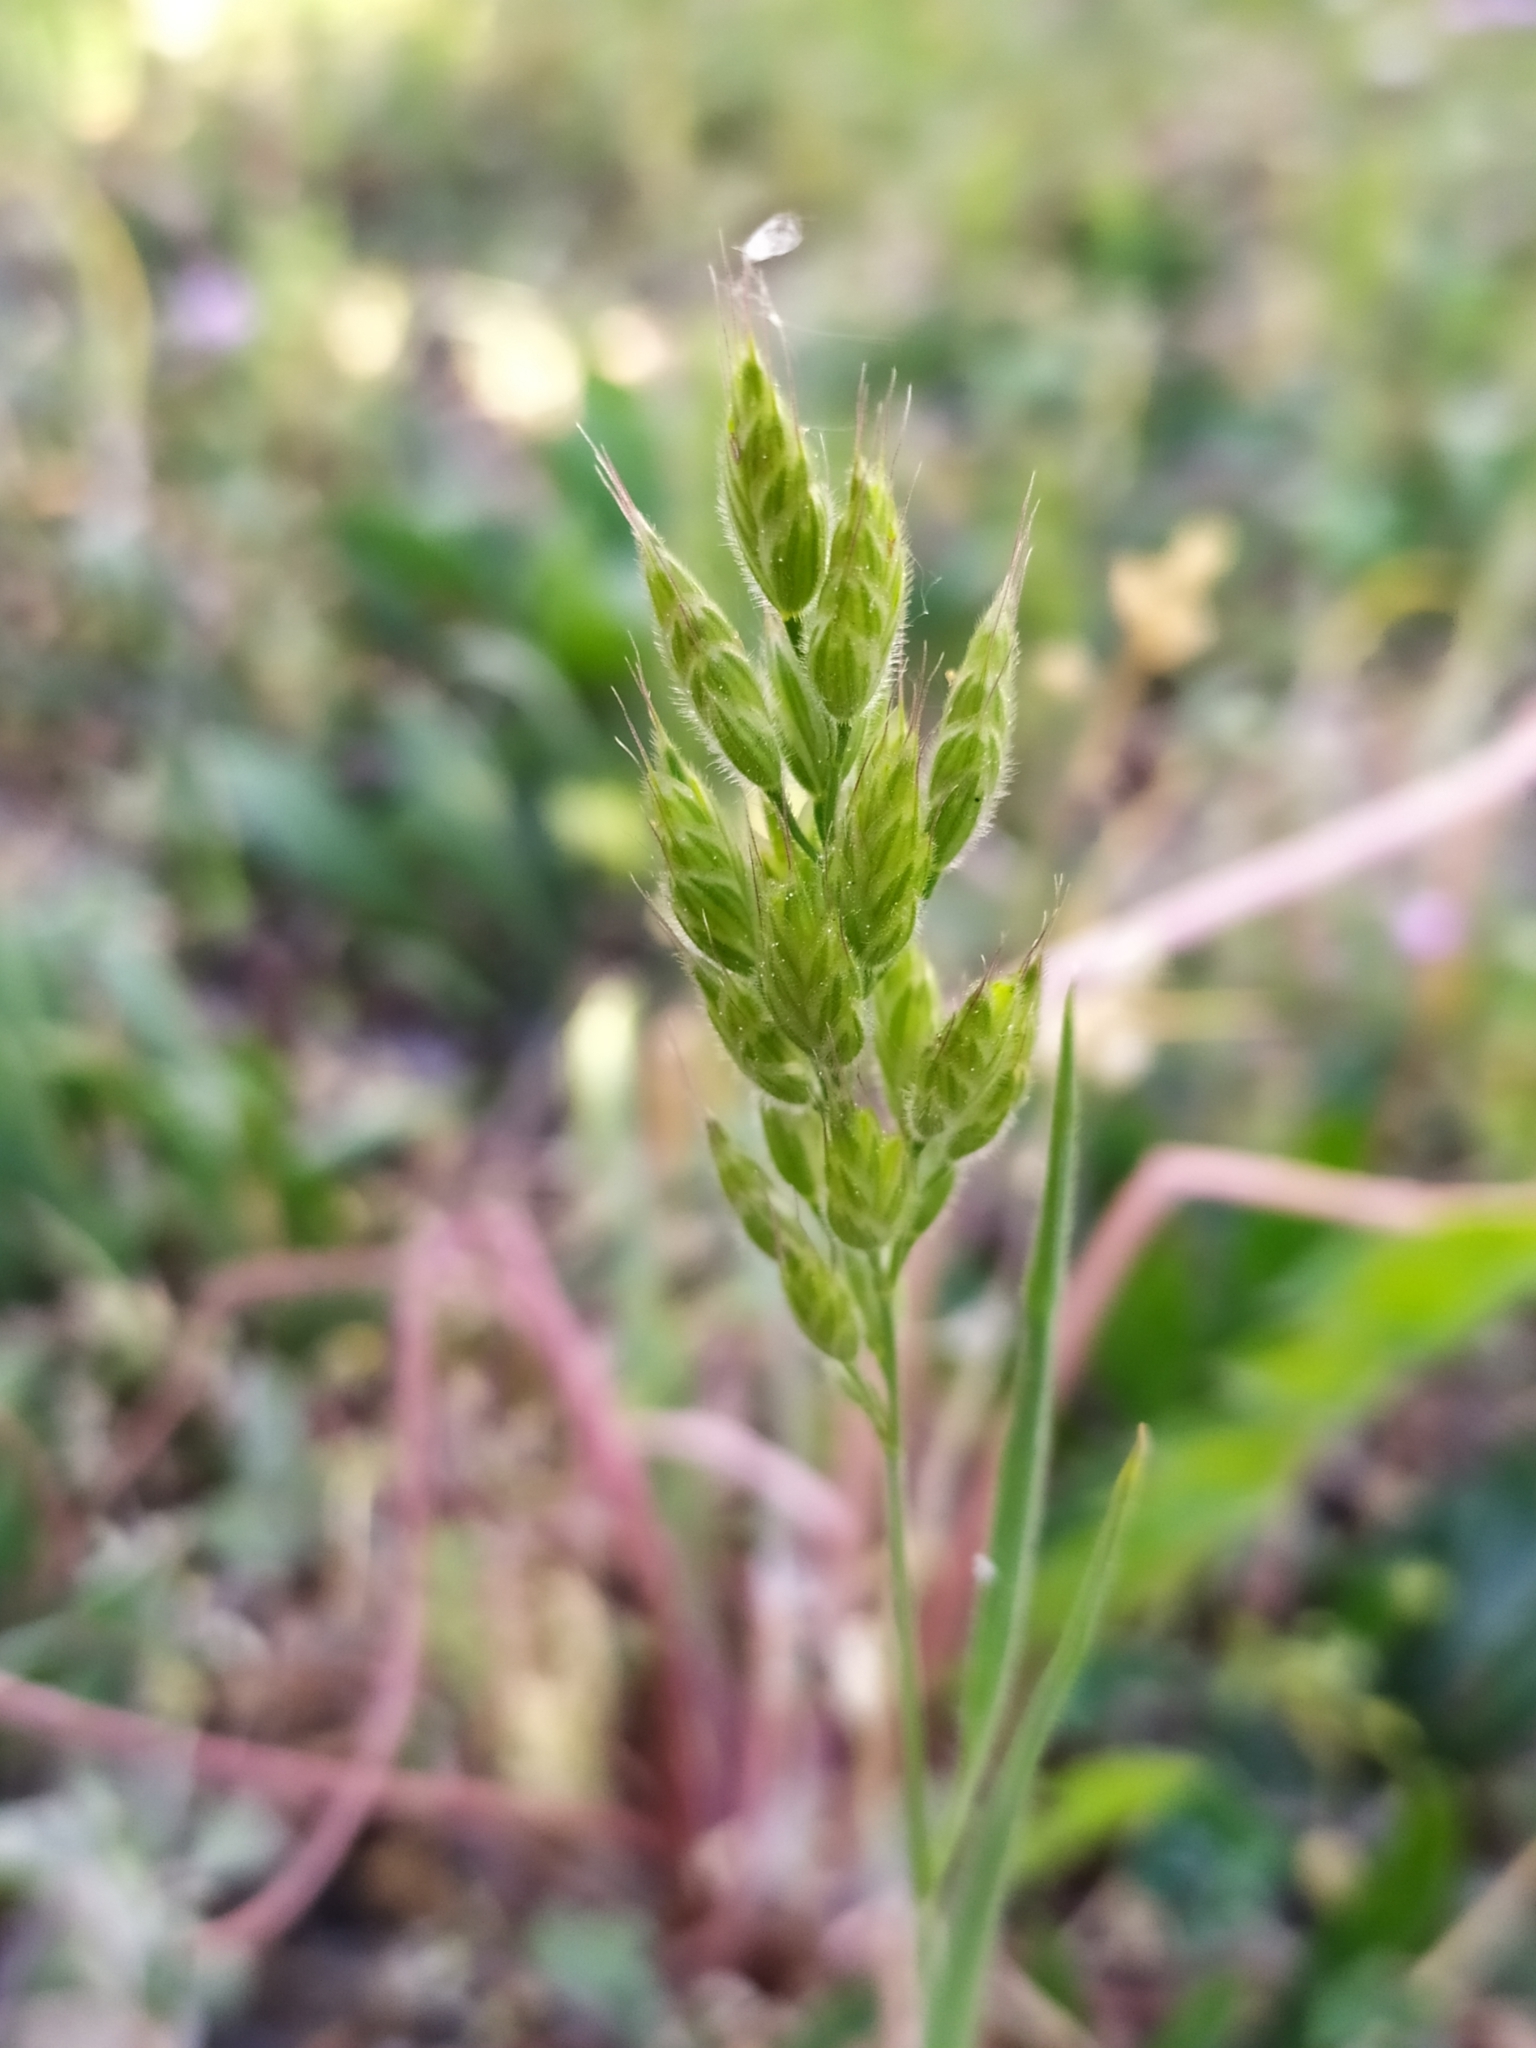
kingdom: Plantae
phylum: Tracheophyta
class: Liliopsida
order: Poales
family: Poaceae
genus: Bromus
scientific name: Bromus hordeaceus
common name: Soft brome
